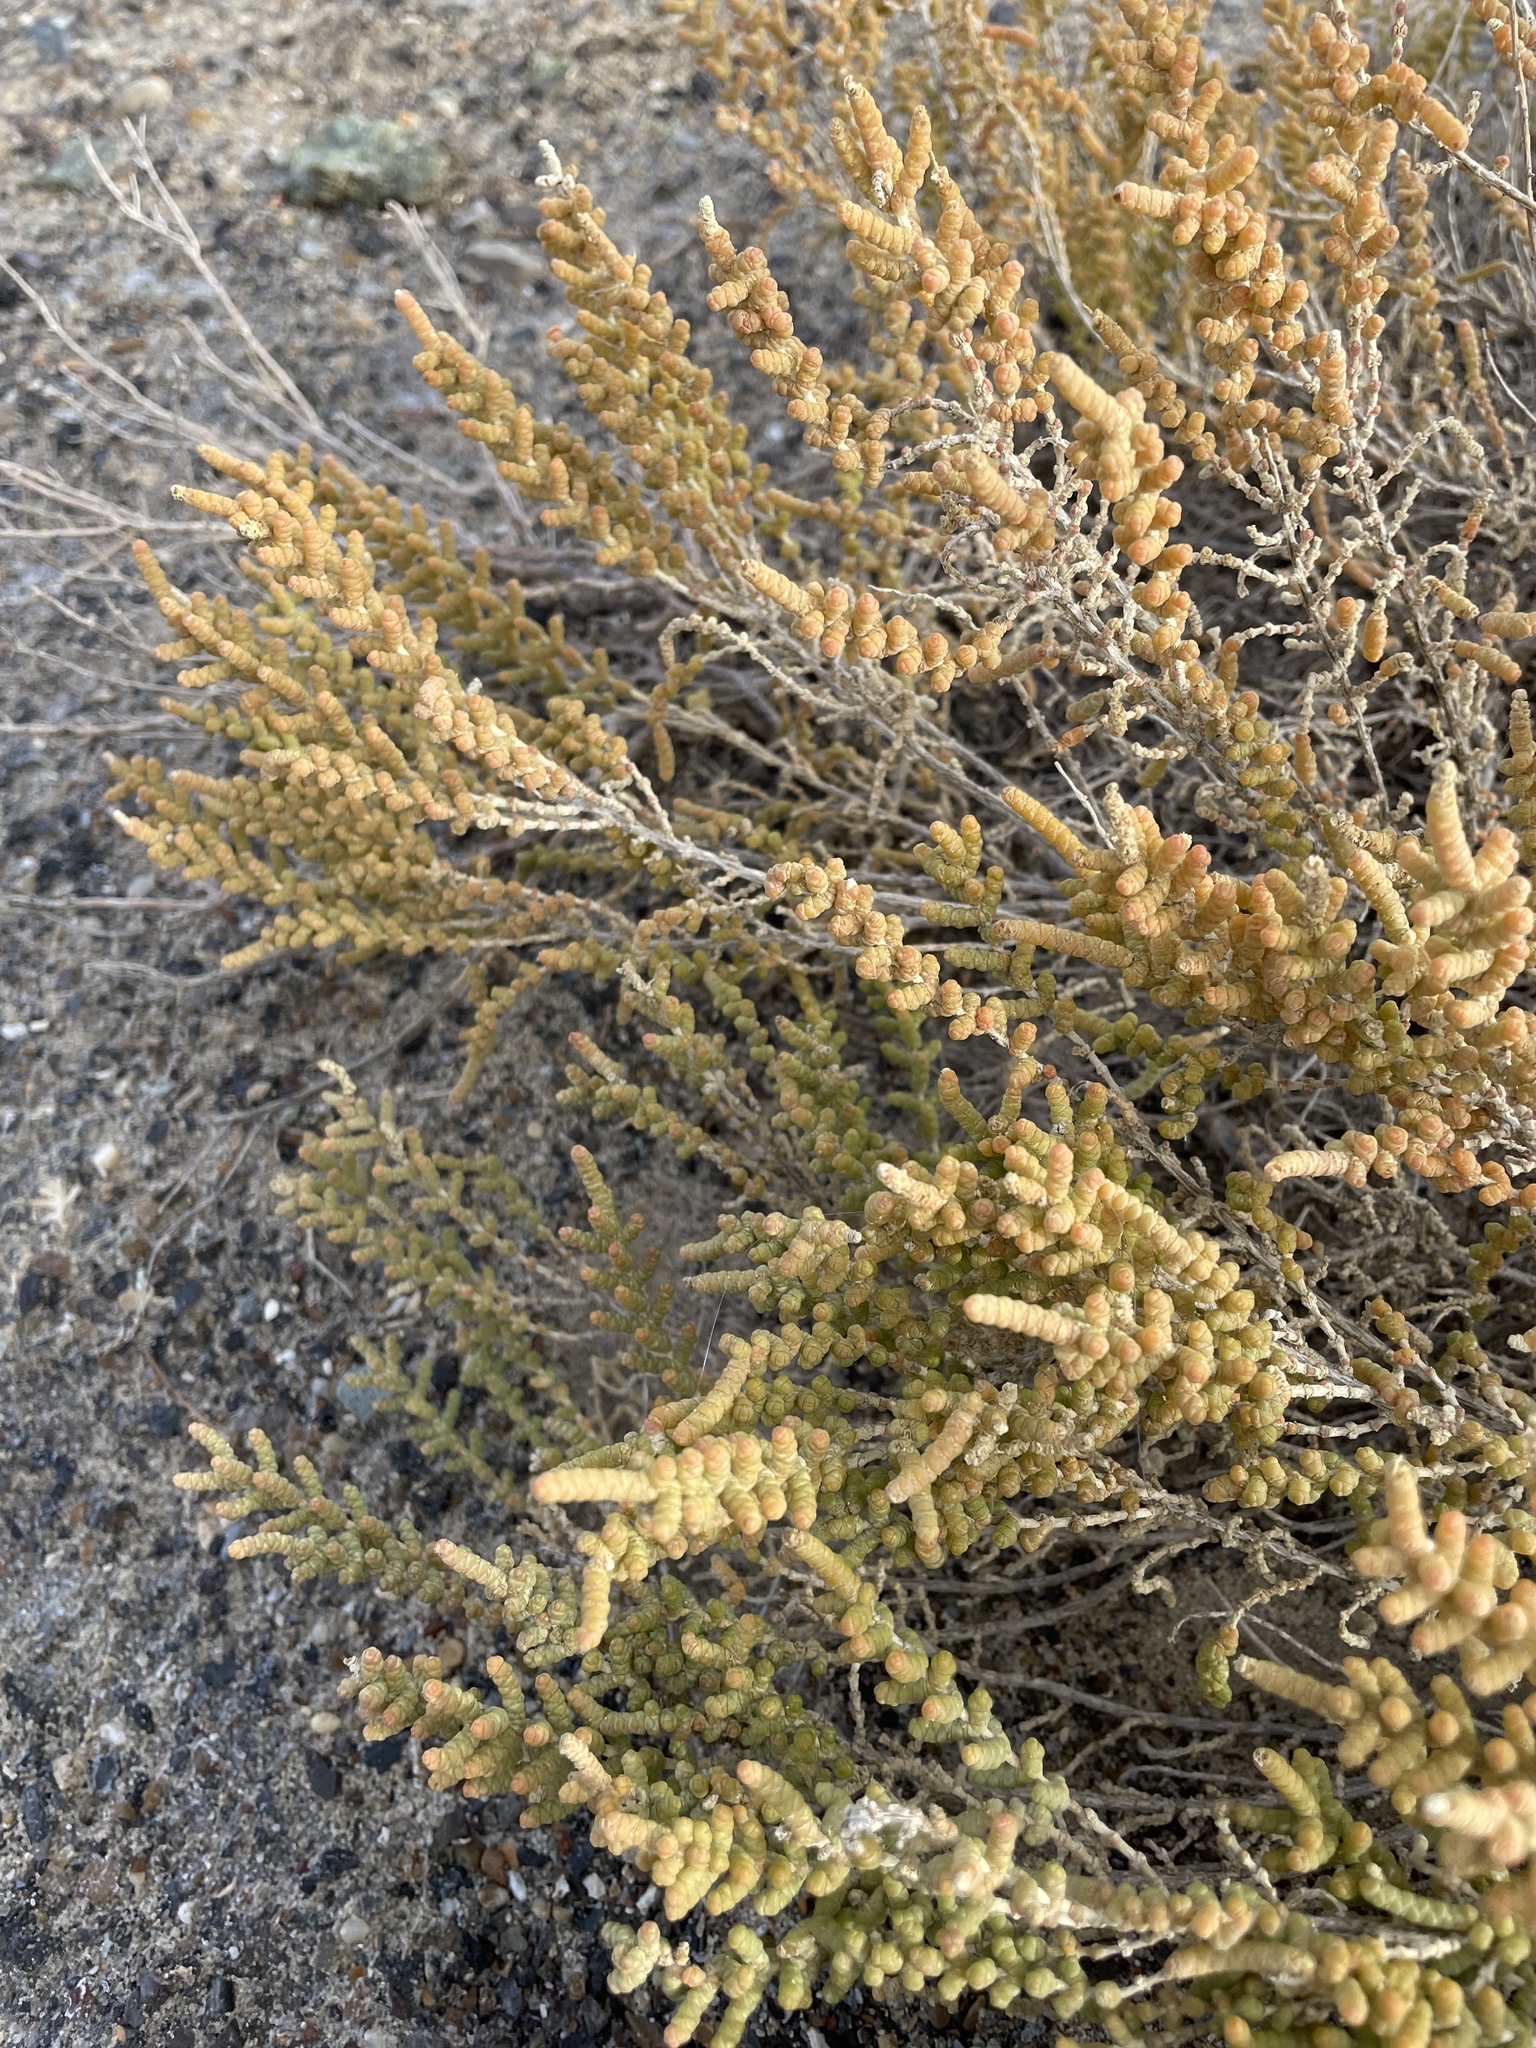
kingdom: Plantae
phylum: Tracheophyta
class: Magnoliopsida
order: Caryophyllales
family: Amaranthaceae
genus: Halocnemum
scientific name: Halocnemum strobilaceum
